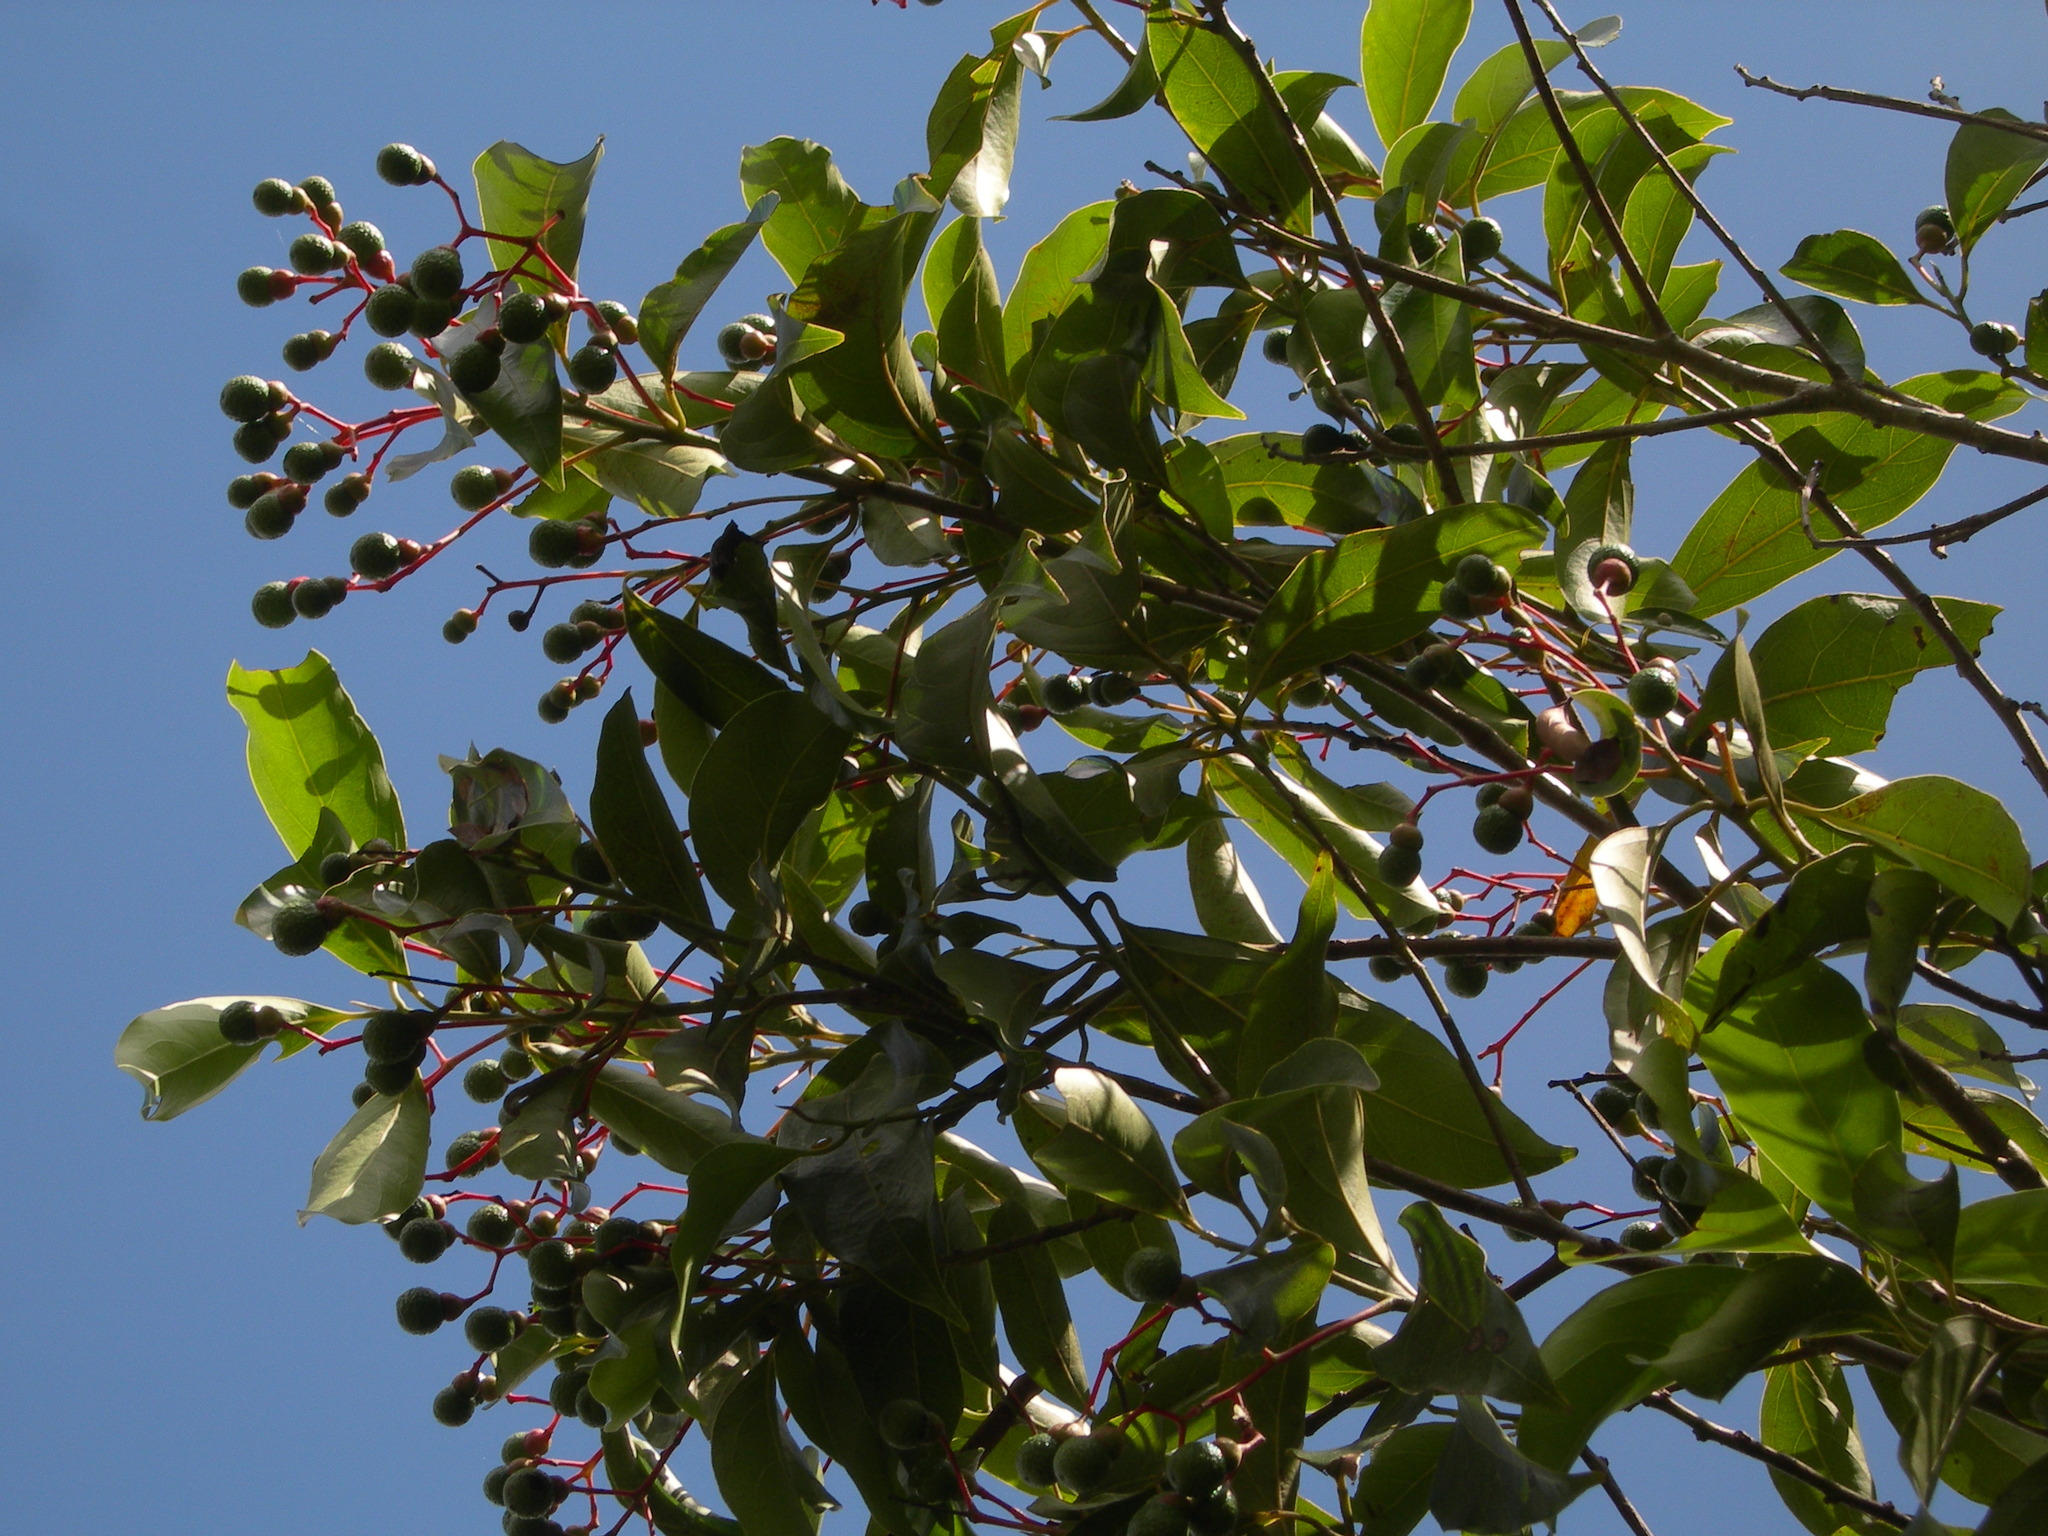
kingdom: Plantae
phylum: Tracheophyta
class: Magnoliopsida
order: Laurales
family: Lauraceae
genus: Damburneya
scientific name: Damburneya salicifolia
